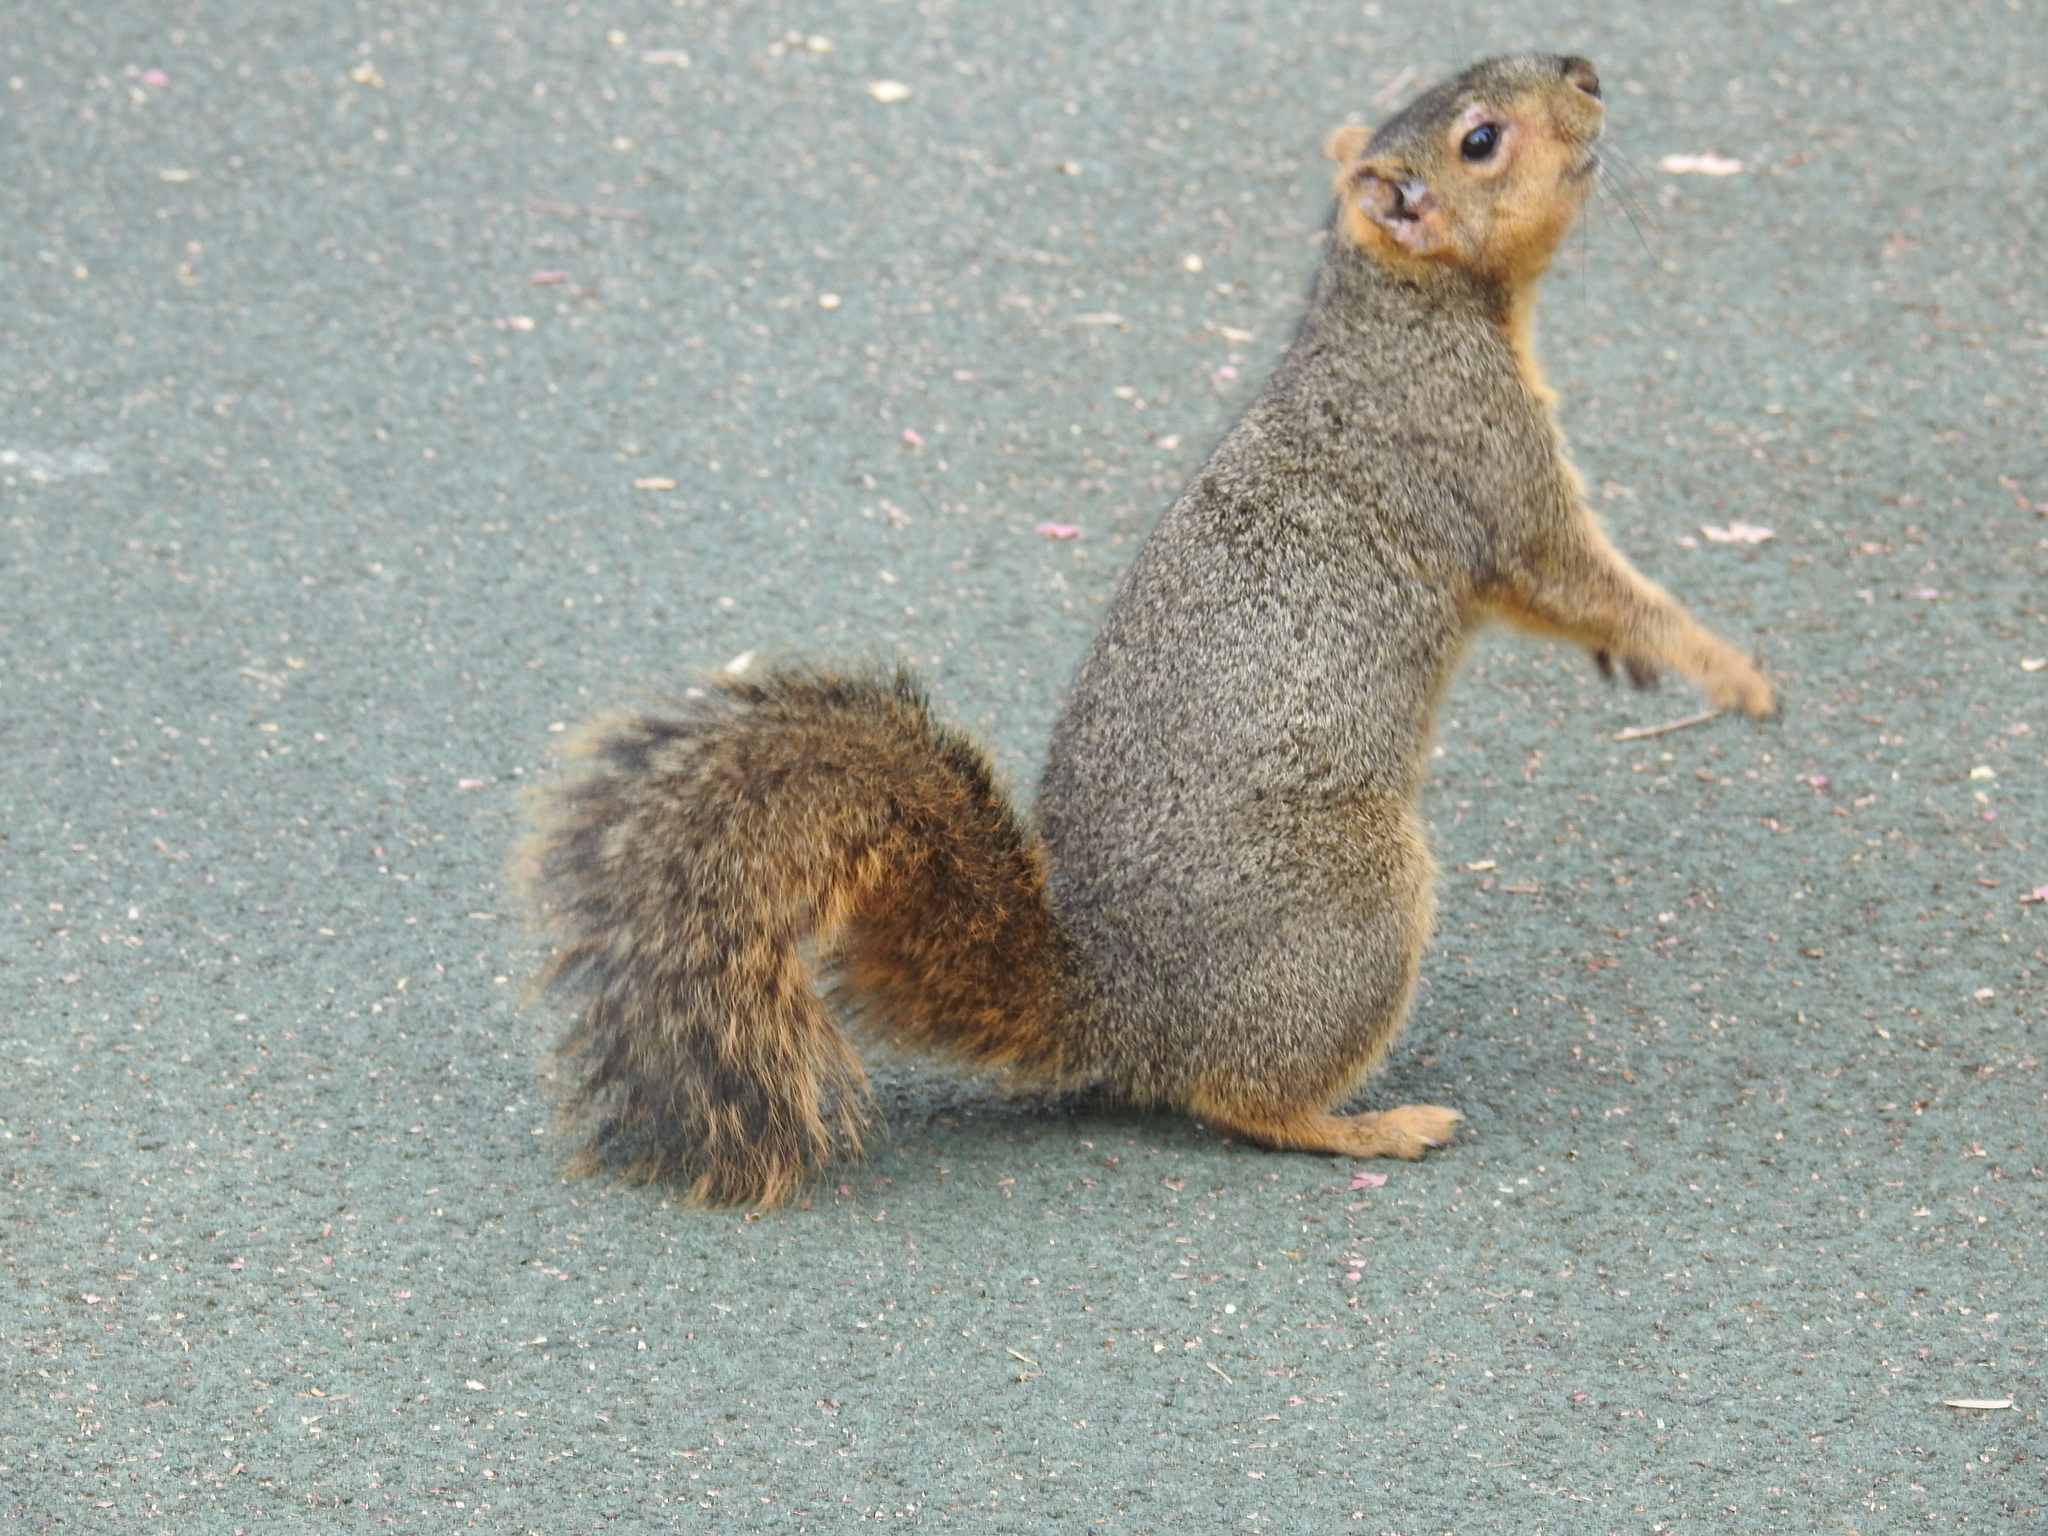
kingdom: Animalia
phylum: Chordata
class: Mammalia
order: Rodentia
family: Sciuridae
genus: Sciurus
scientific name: Sciurus niger
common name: Fox squirrel
